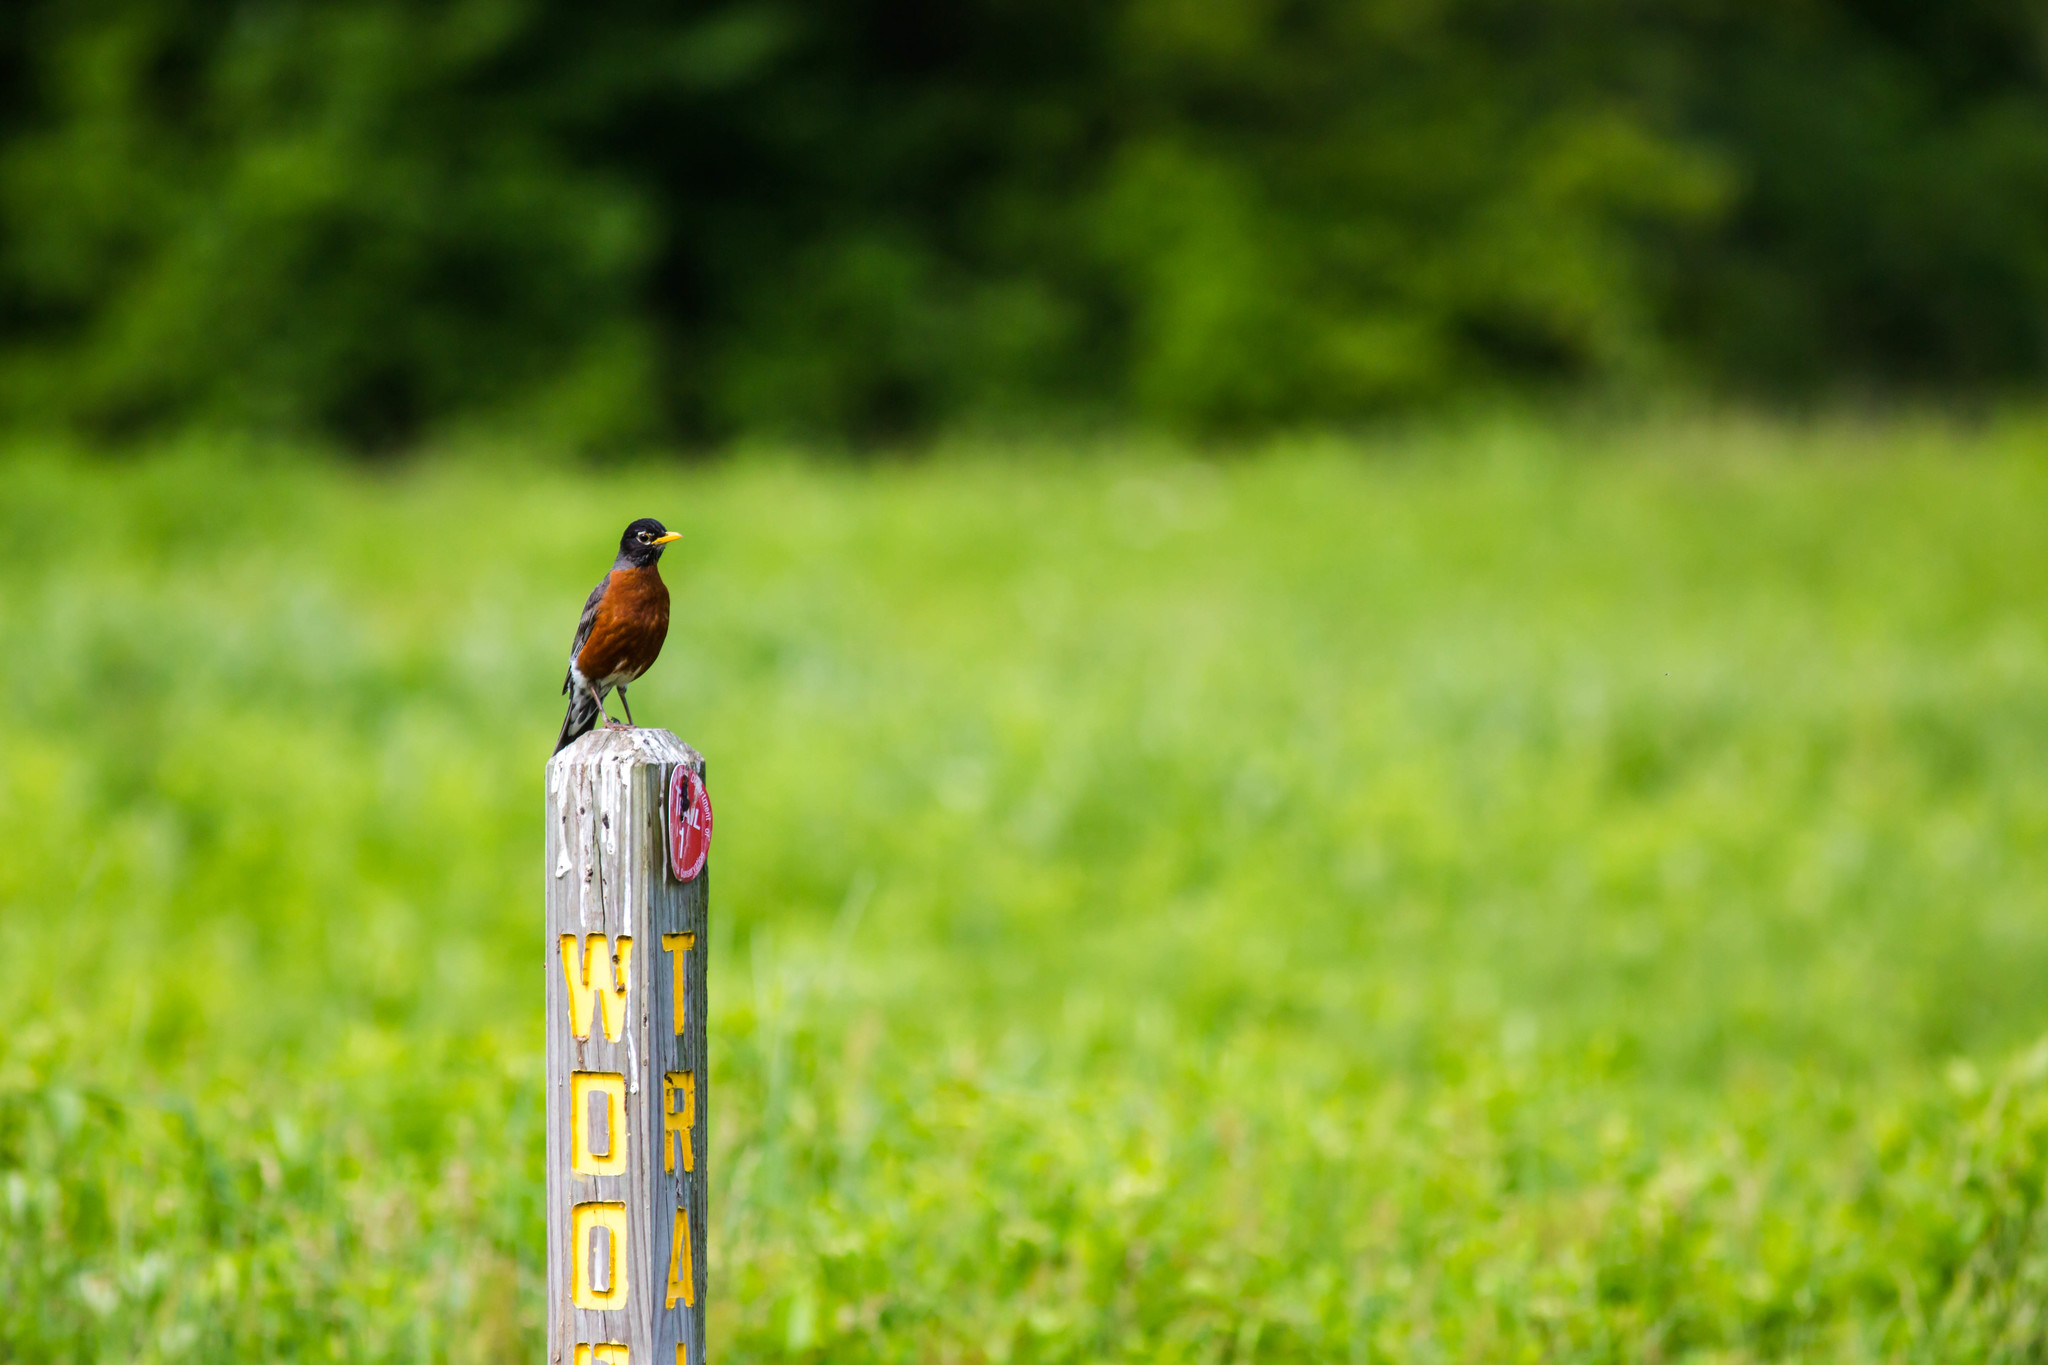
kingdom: Animalia
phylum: Chordata
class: Aves
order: Passeriformes
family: Turdidae
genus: Turdus
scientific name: Turdus migratorius
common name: American robin
